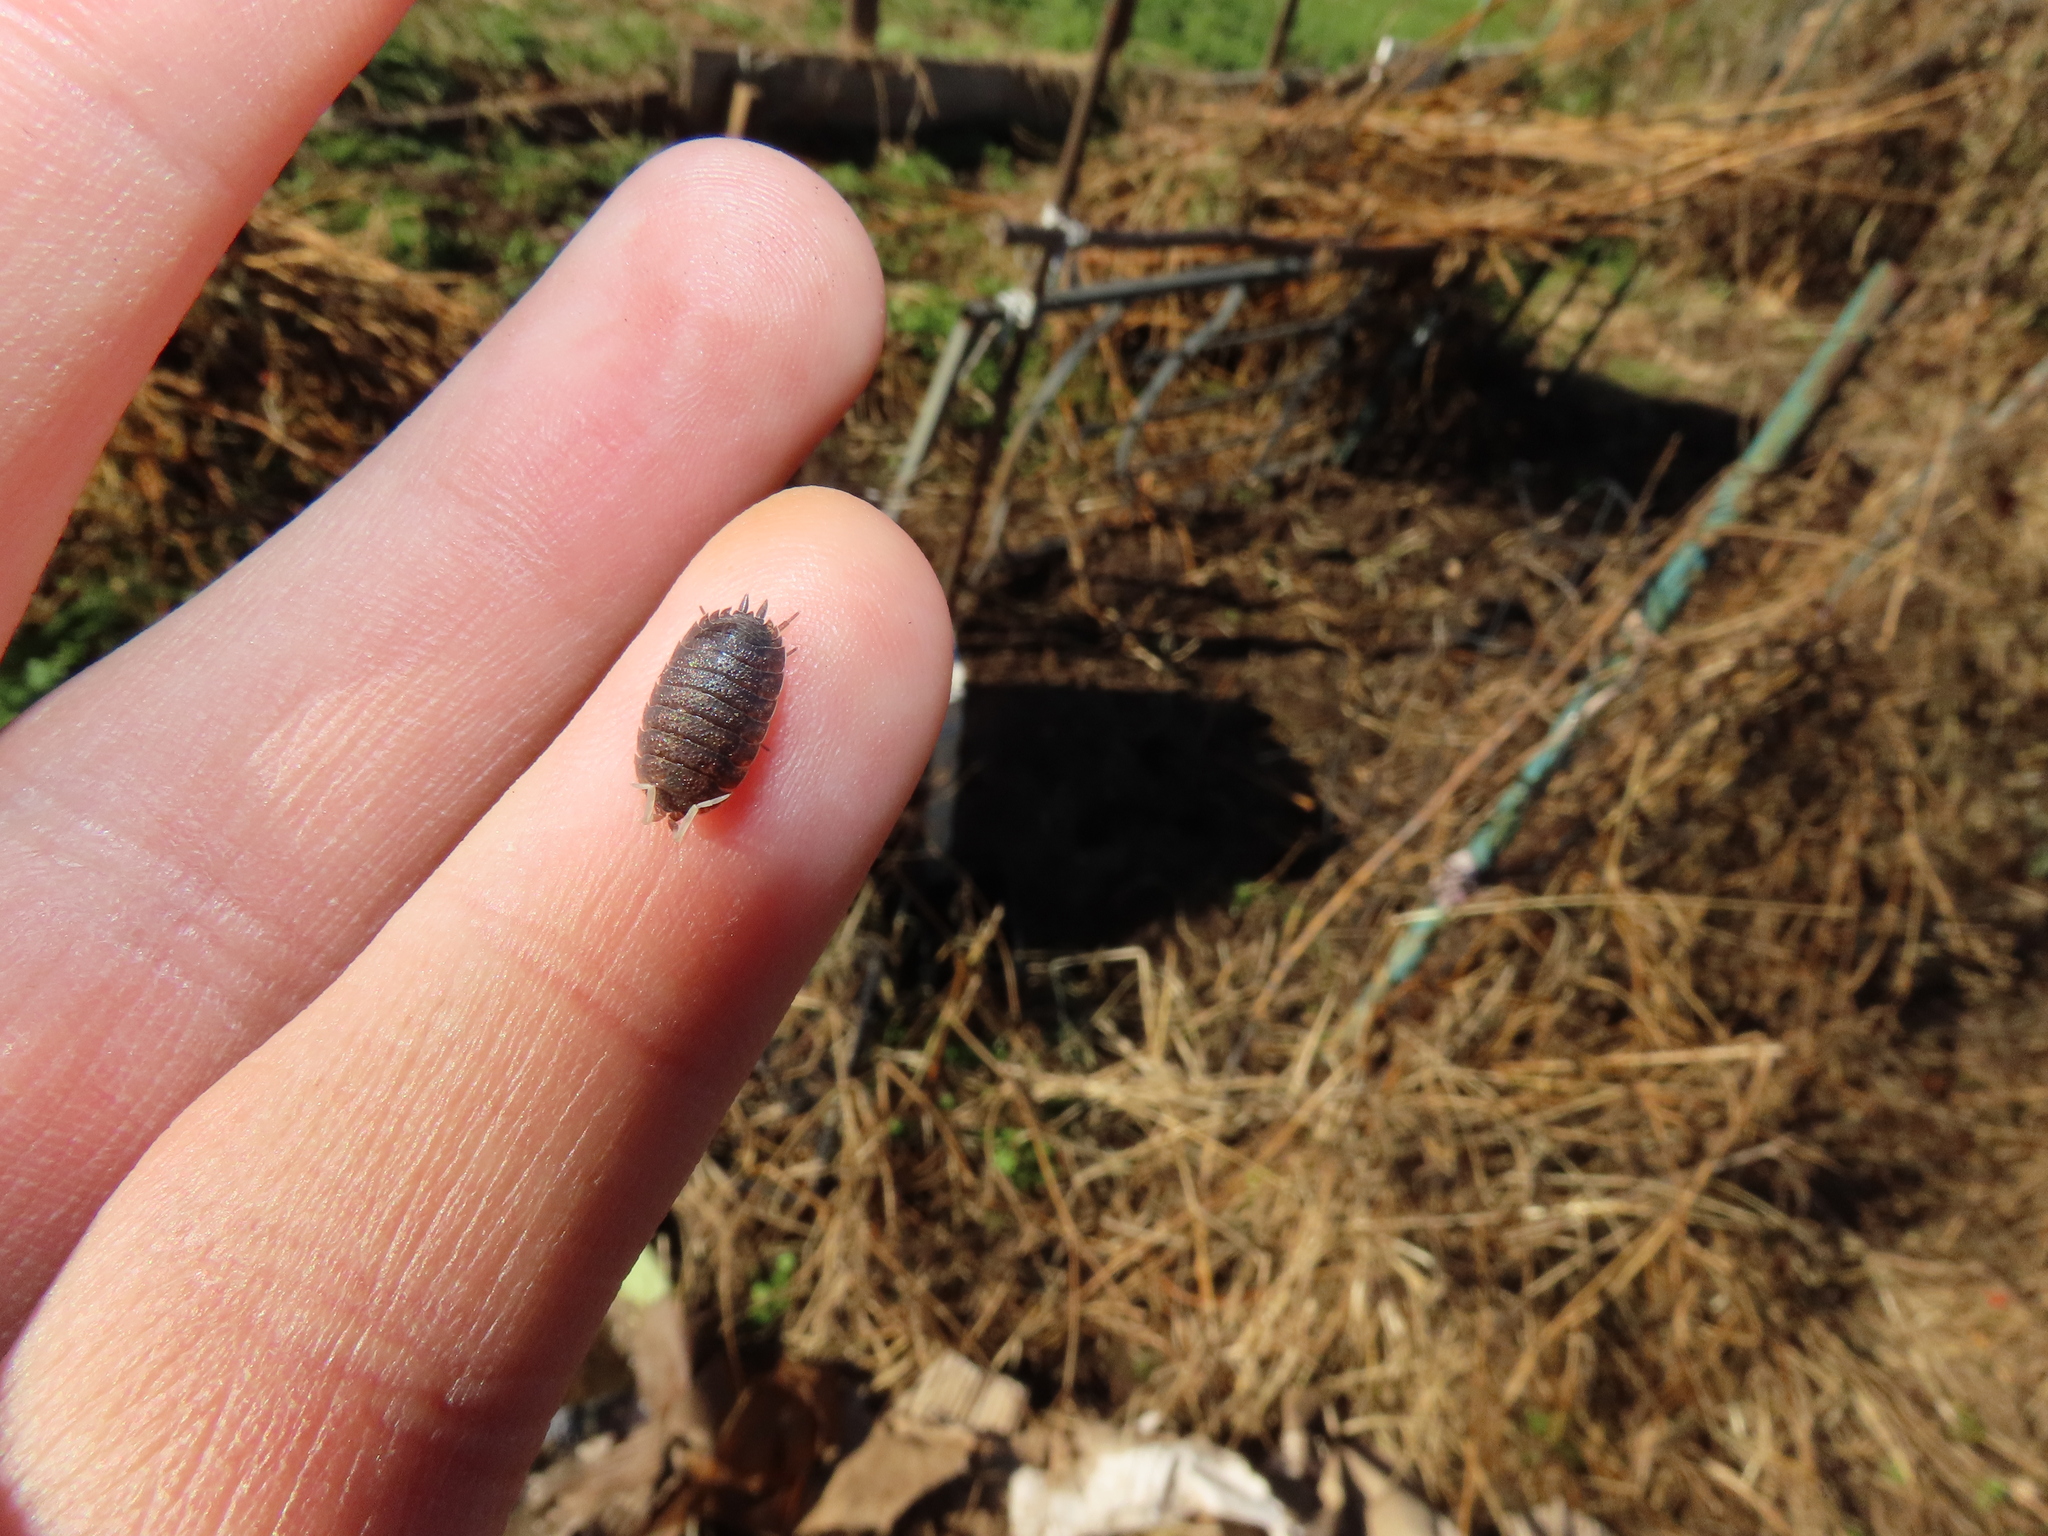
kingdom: Animalia
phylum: Arthropoda
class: Malacostraca
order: Isopoda
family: Porcellionidae
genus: Porcellio
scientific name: Porcellio scaber
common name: Common rough woodlouse
